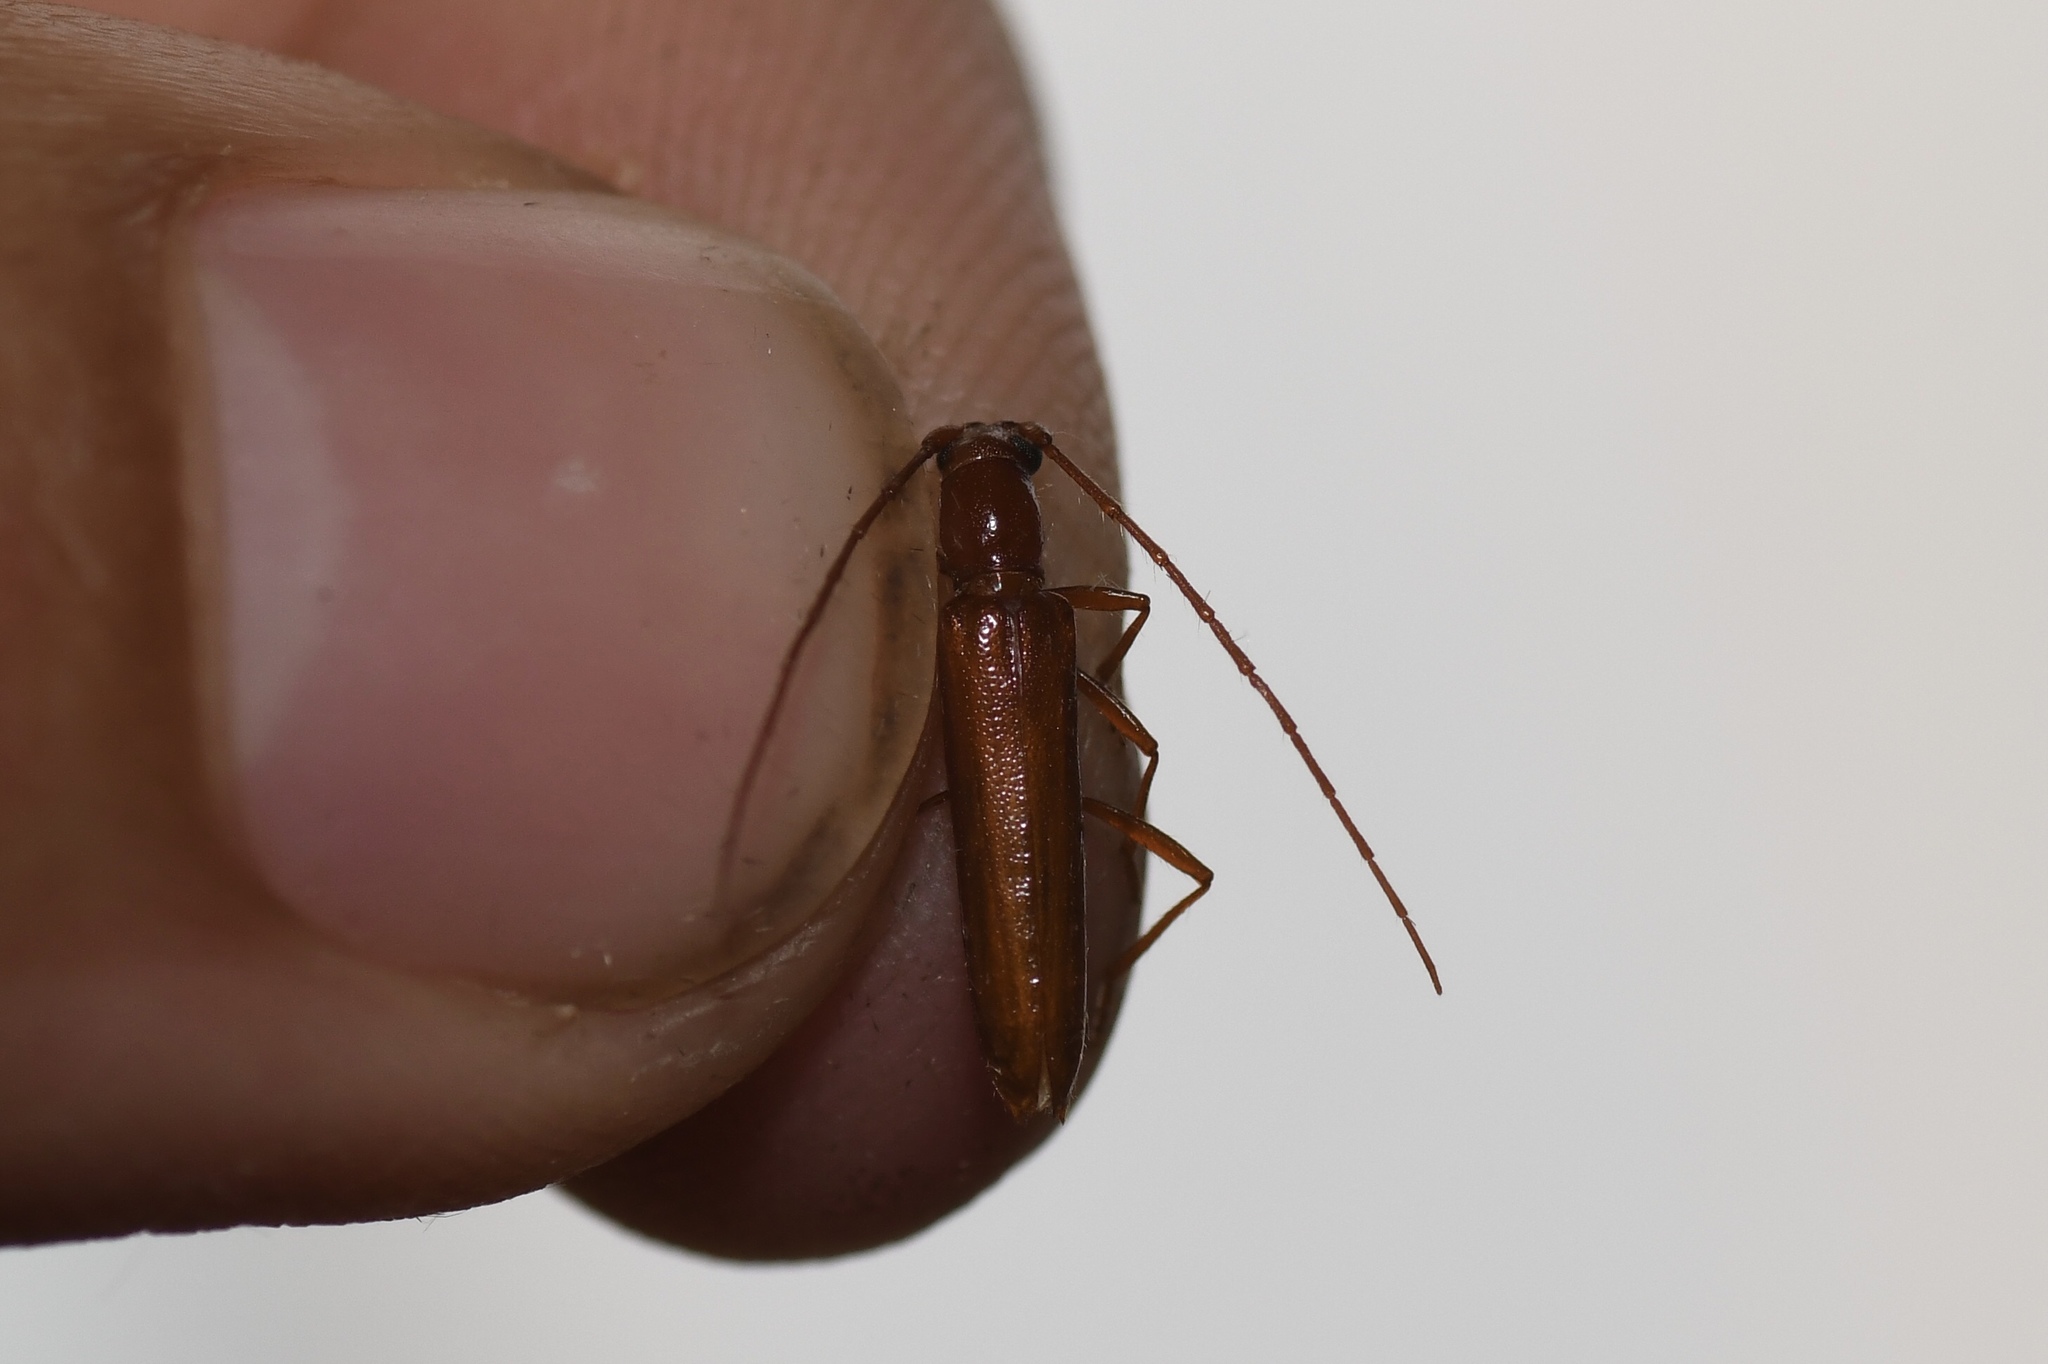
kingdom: Animalia
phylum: Arthropoda
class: Insecta
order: Coleoptera
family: Cerambycidae
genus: Psyrassa
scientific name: Psyrassa unicolor
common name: Branch pruner
